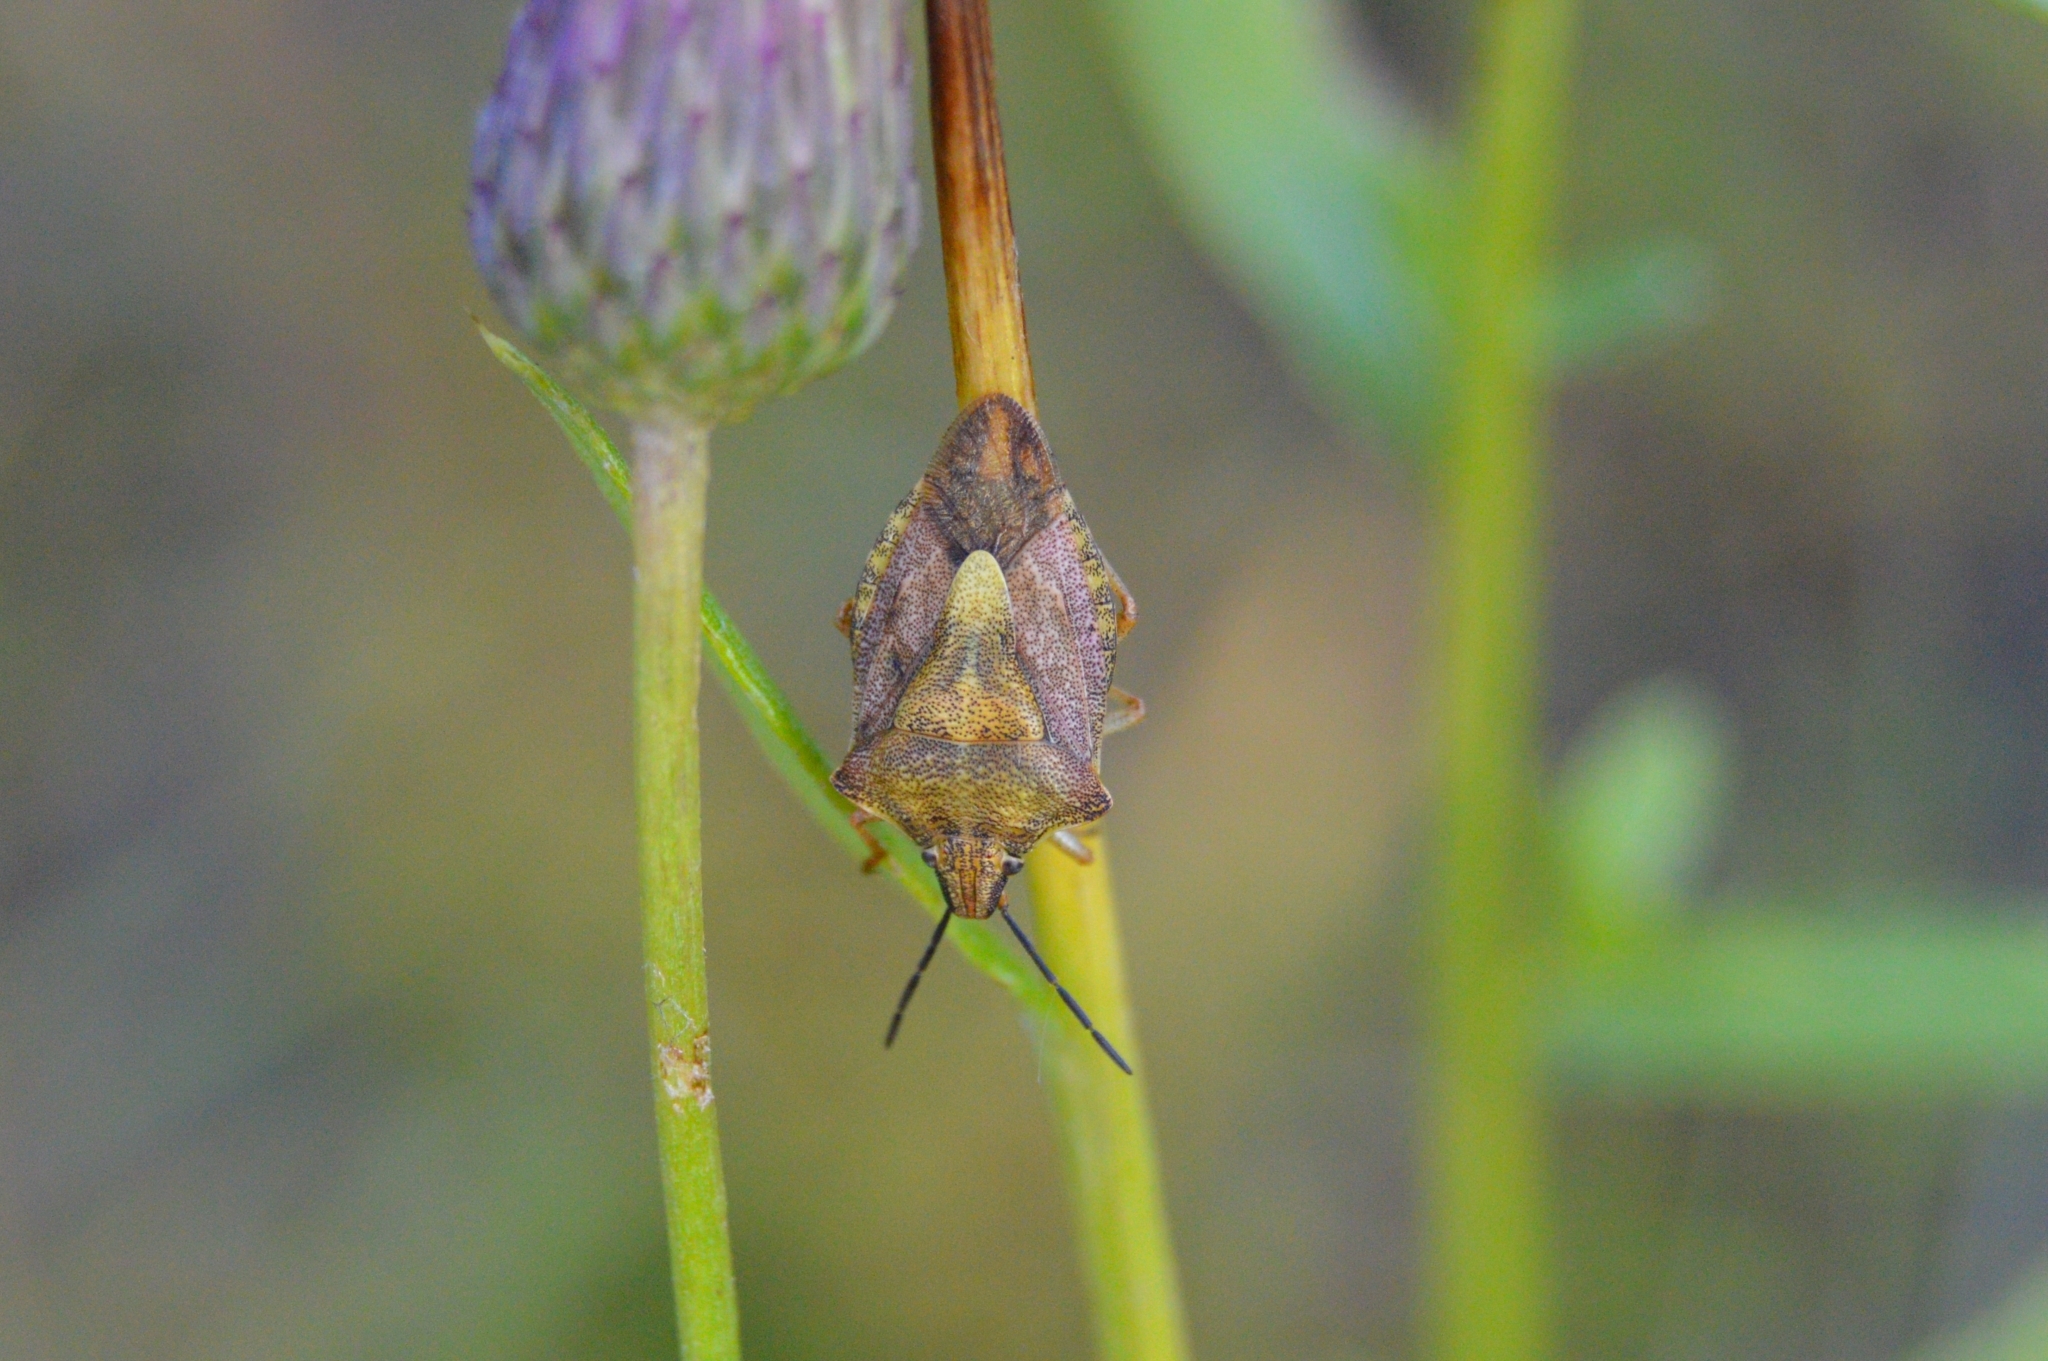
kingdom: Animalia
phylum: Arthropoda
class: Insecta
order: Hemiptera
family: Pentatomidae
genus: Carpocoris
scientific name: Carpocoris purpureipennis
